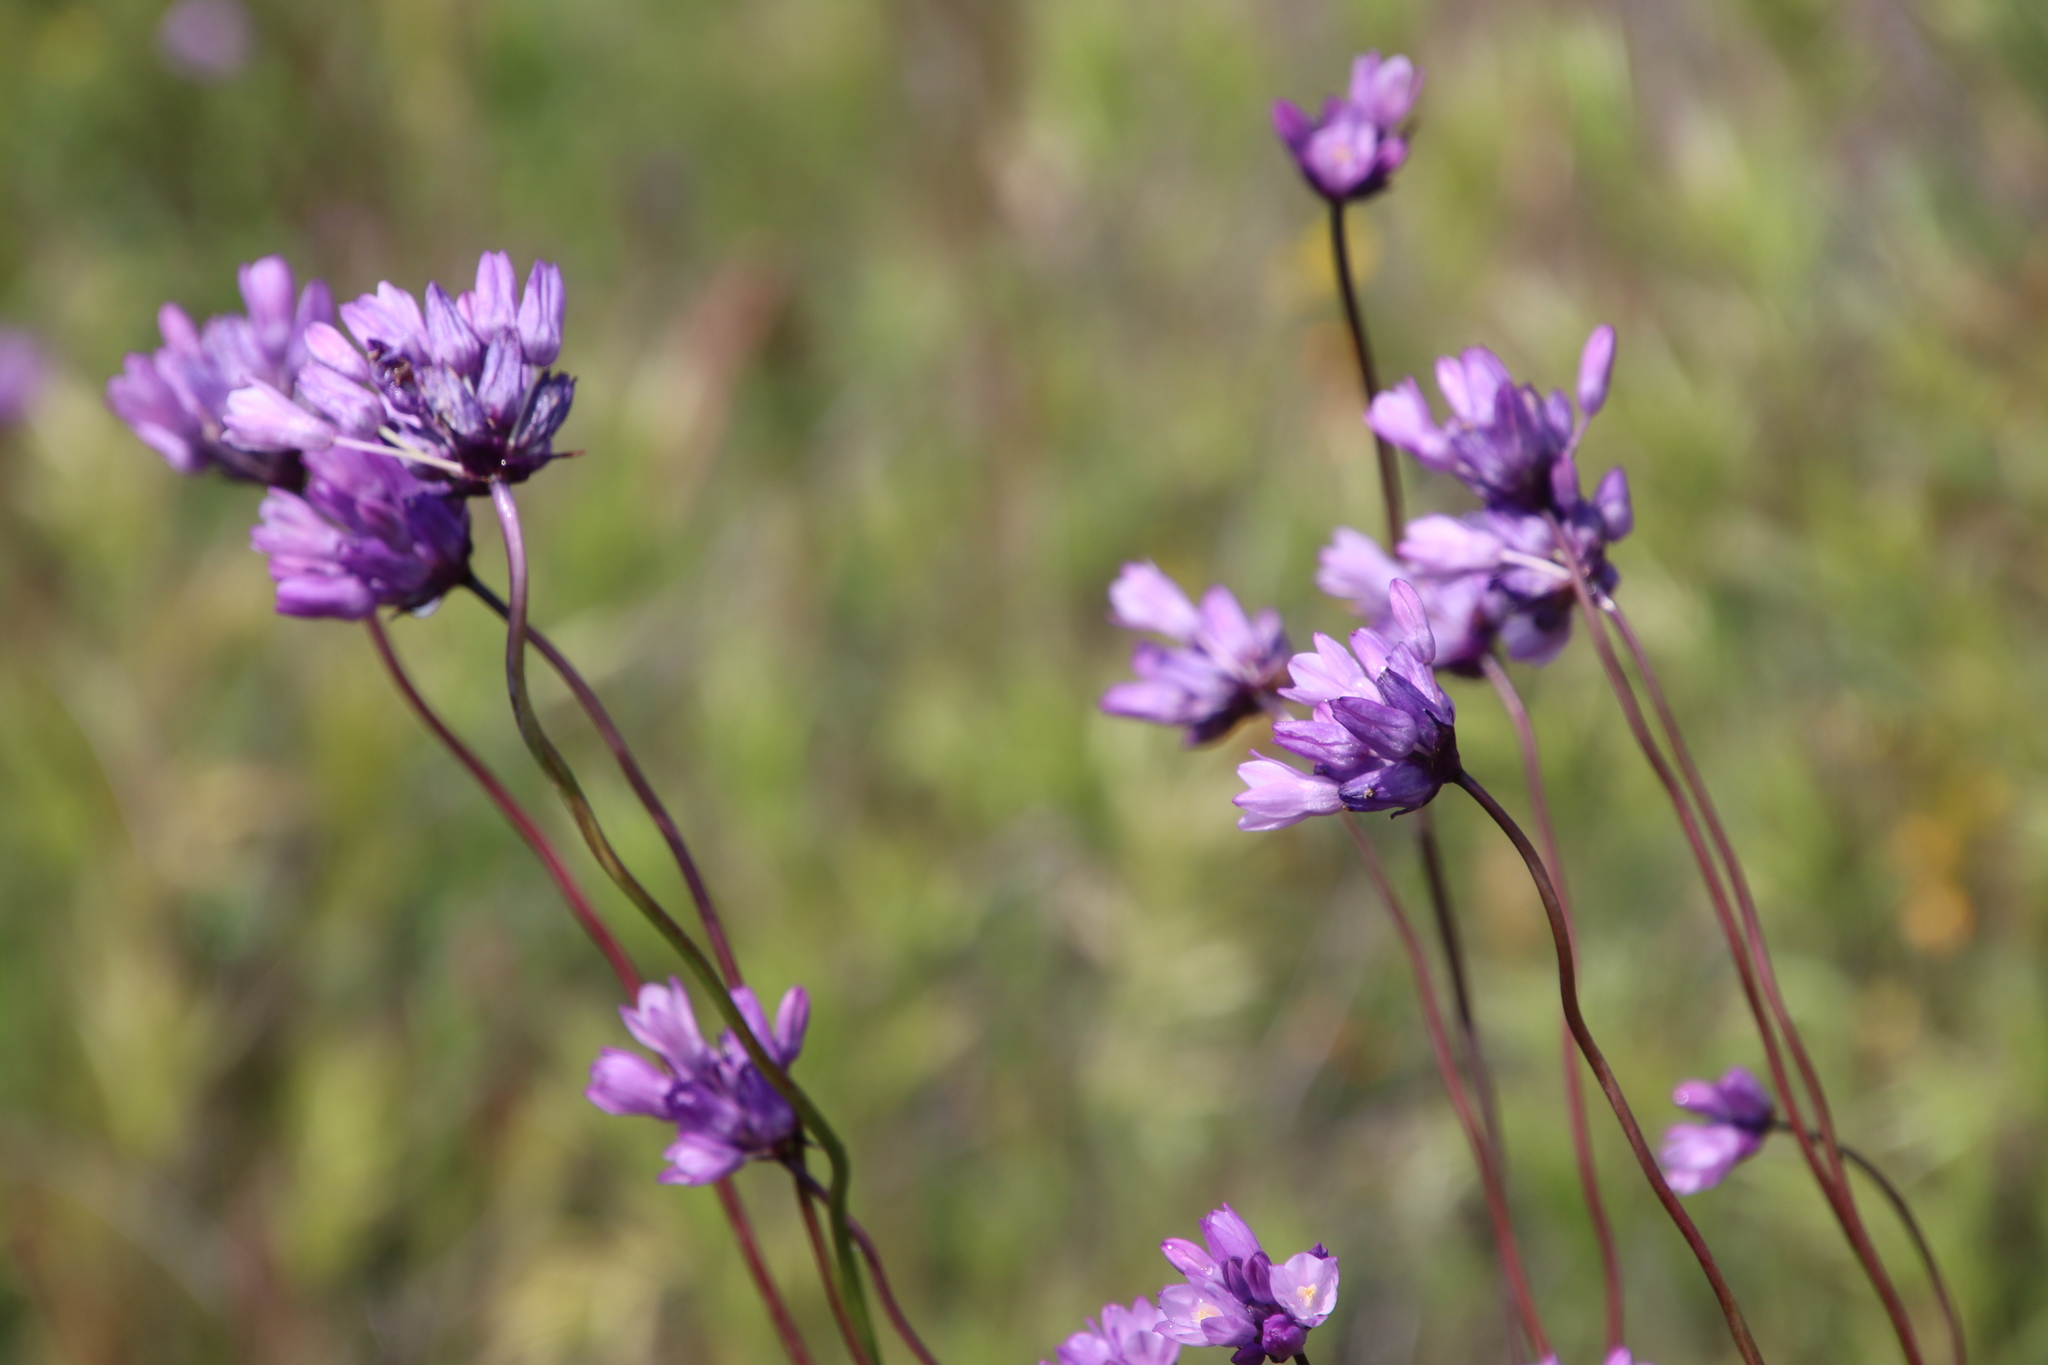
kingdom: Plantae
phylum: Tracheophyta
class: Liliopsida
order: Asparagales
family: Asparagaceae
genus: Dipterostemon
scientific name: Dipterostemon capitatus
